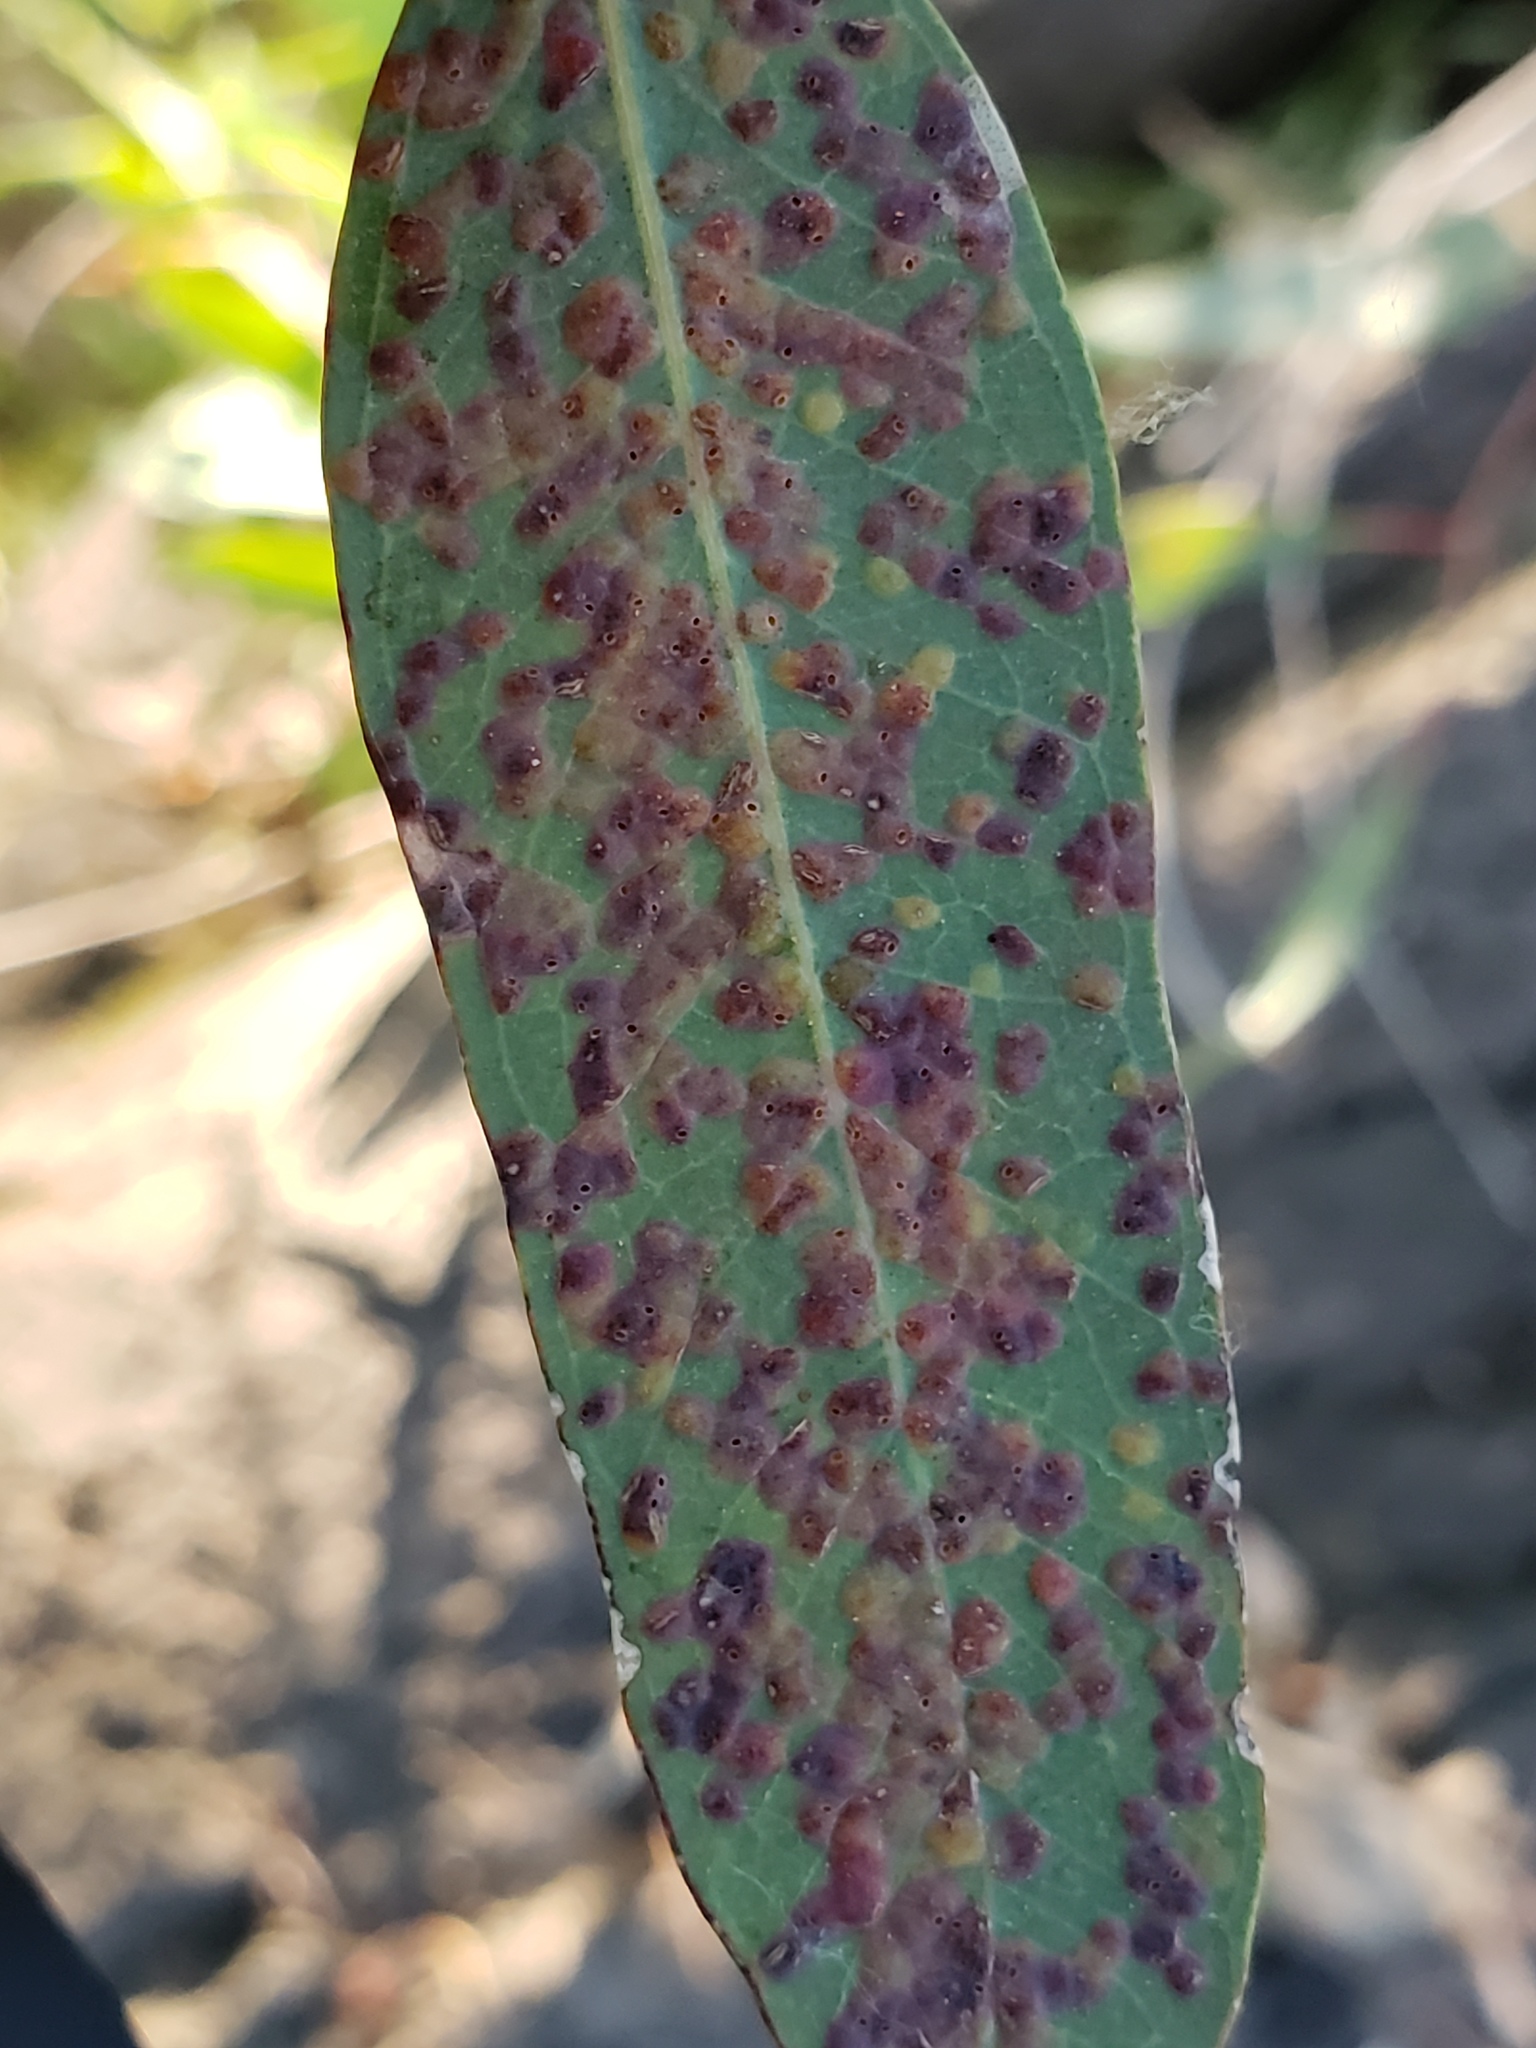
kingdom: Animalia
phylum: Arthropoda
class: Insecta
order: Hymenoptera
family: Eulophidae
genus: Ophelimus
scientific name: Ophelimus maskelli
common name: Gall wasp
